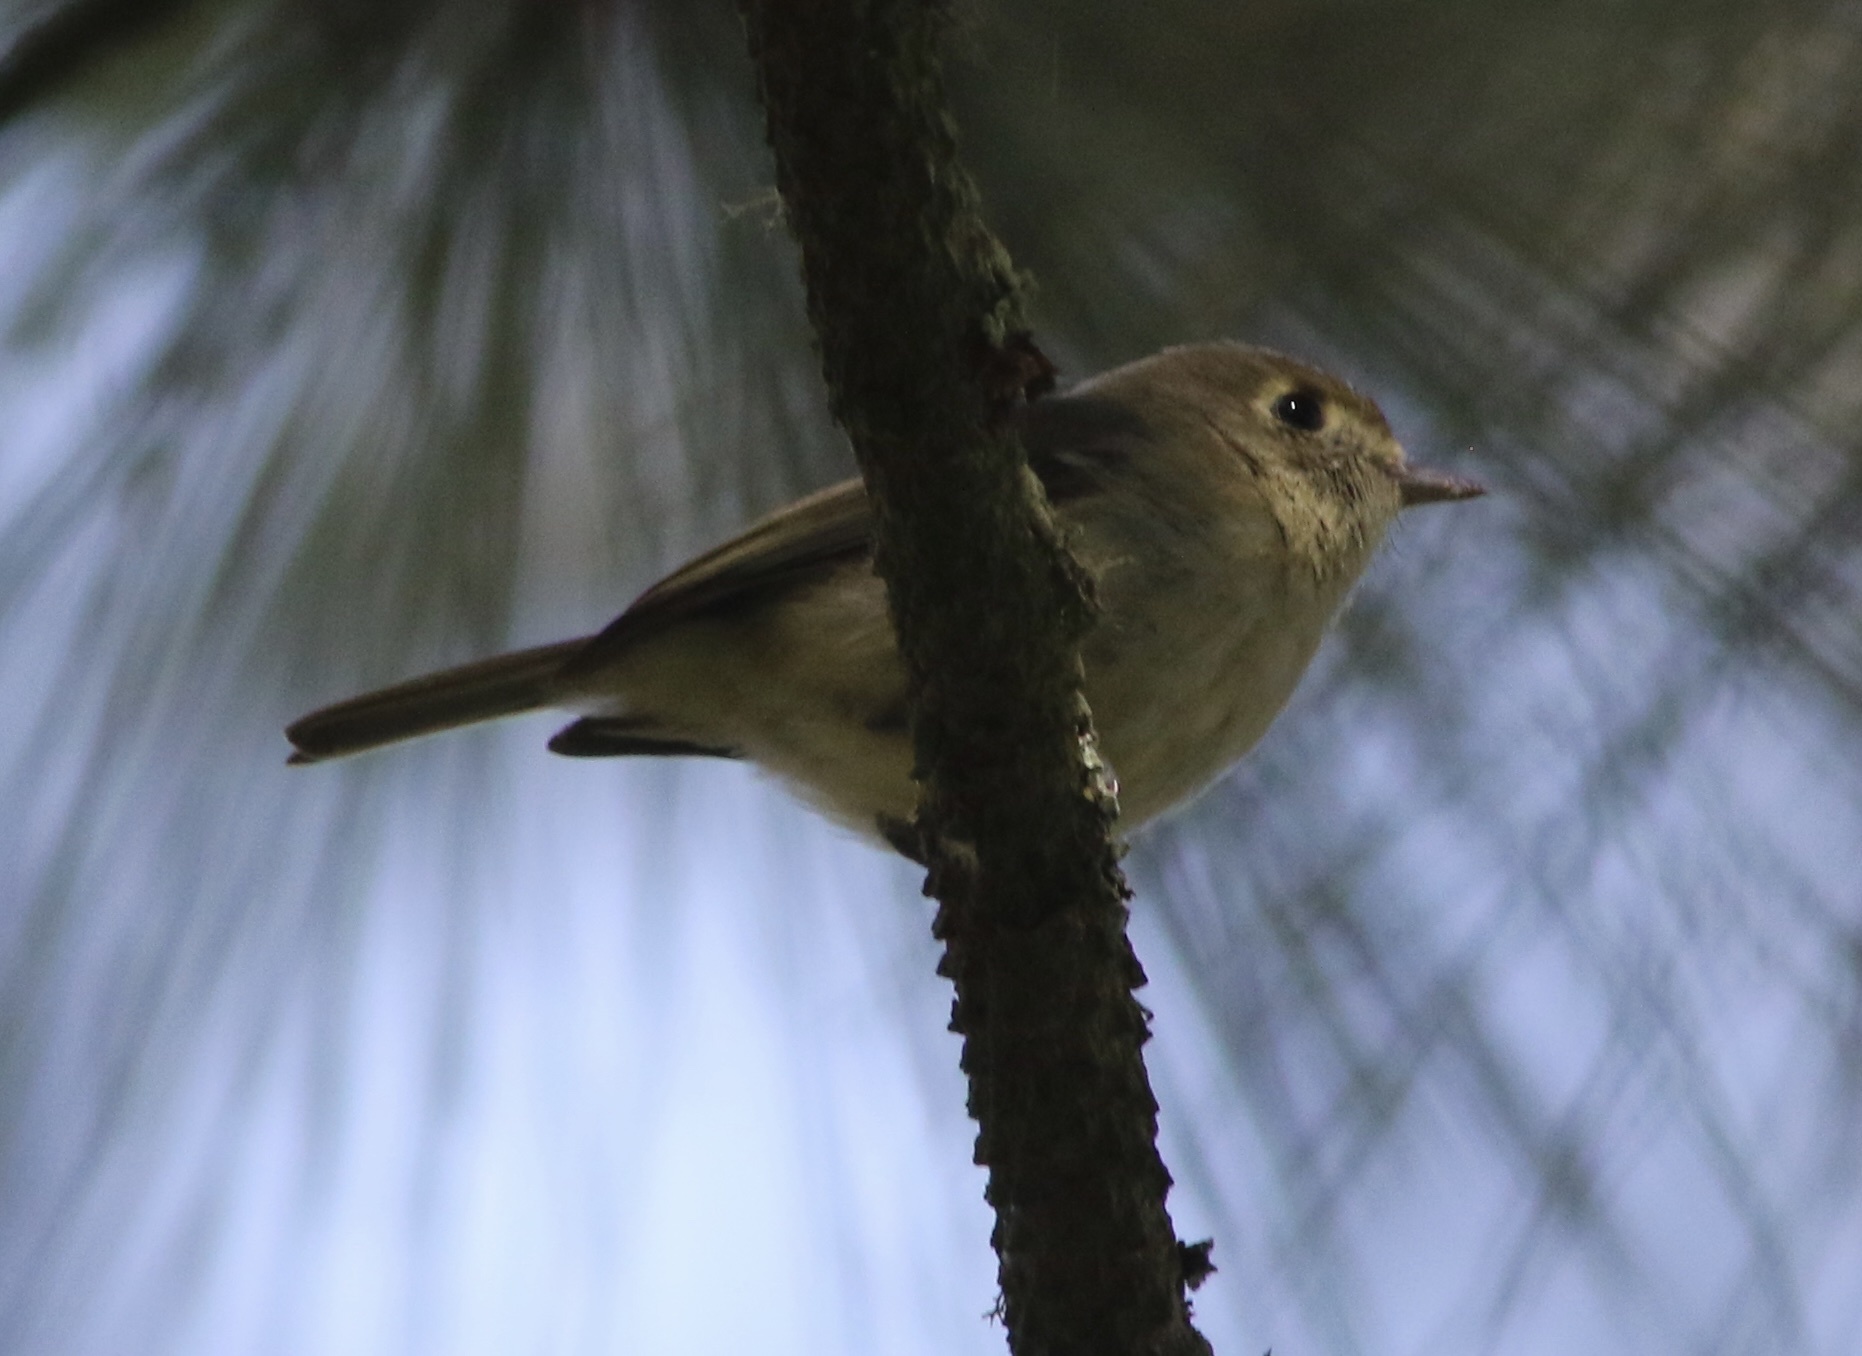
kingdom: Animalia
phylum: Chordata
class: Aves
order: Passeriformes
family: Vireonidae
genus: Vireo
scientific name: Vireo huttoni
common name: Hutton's vireo
